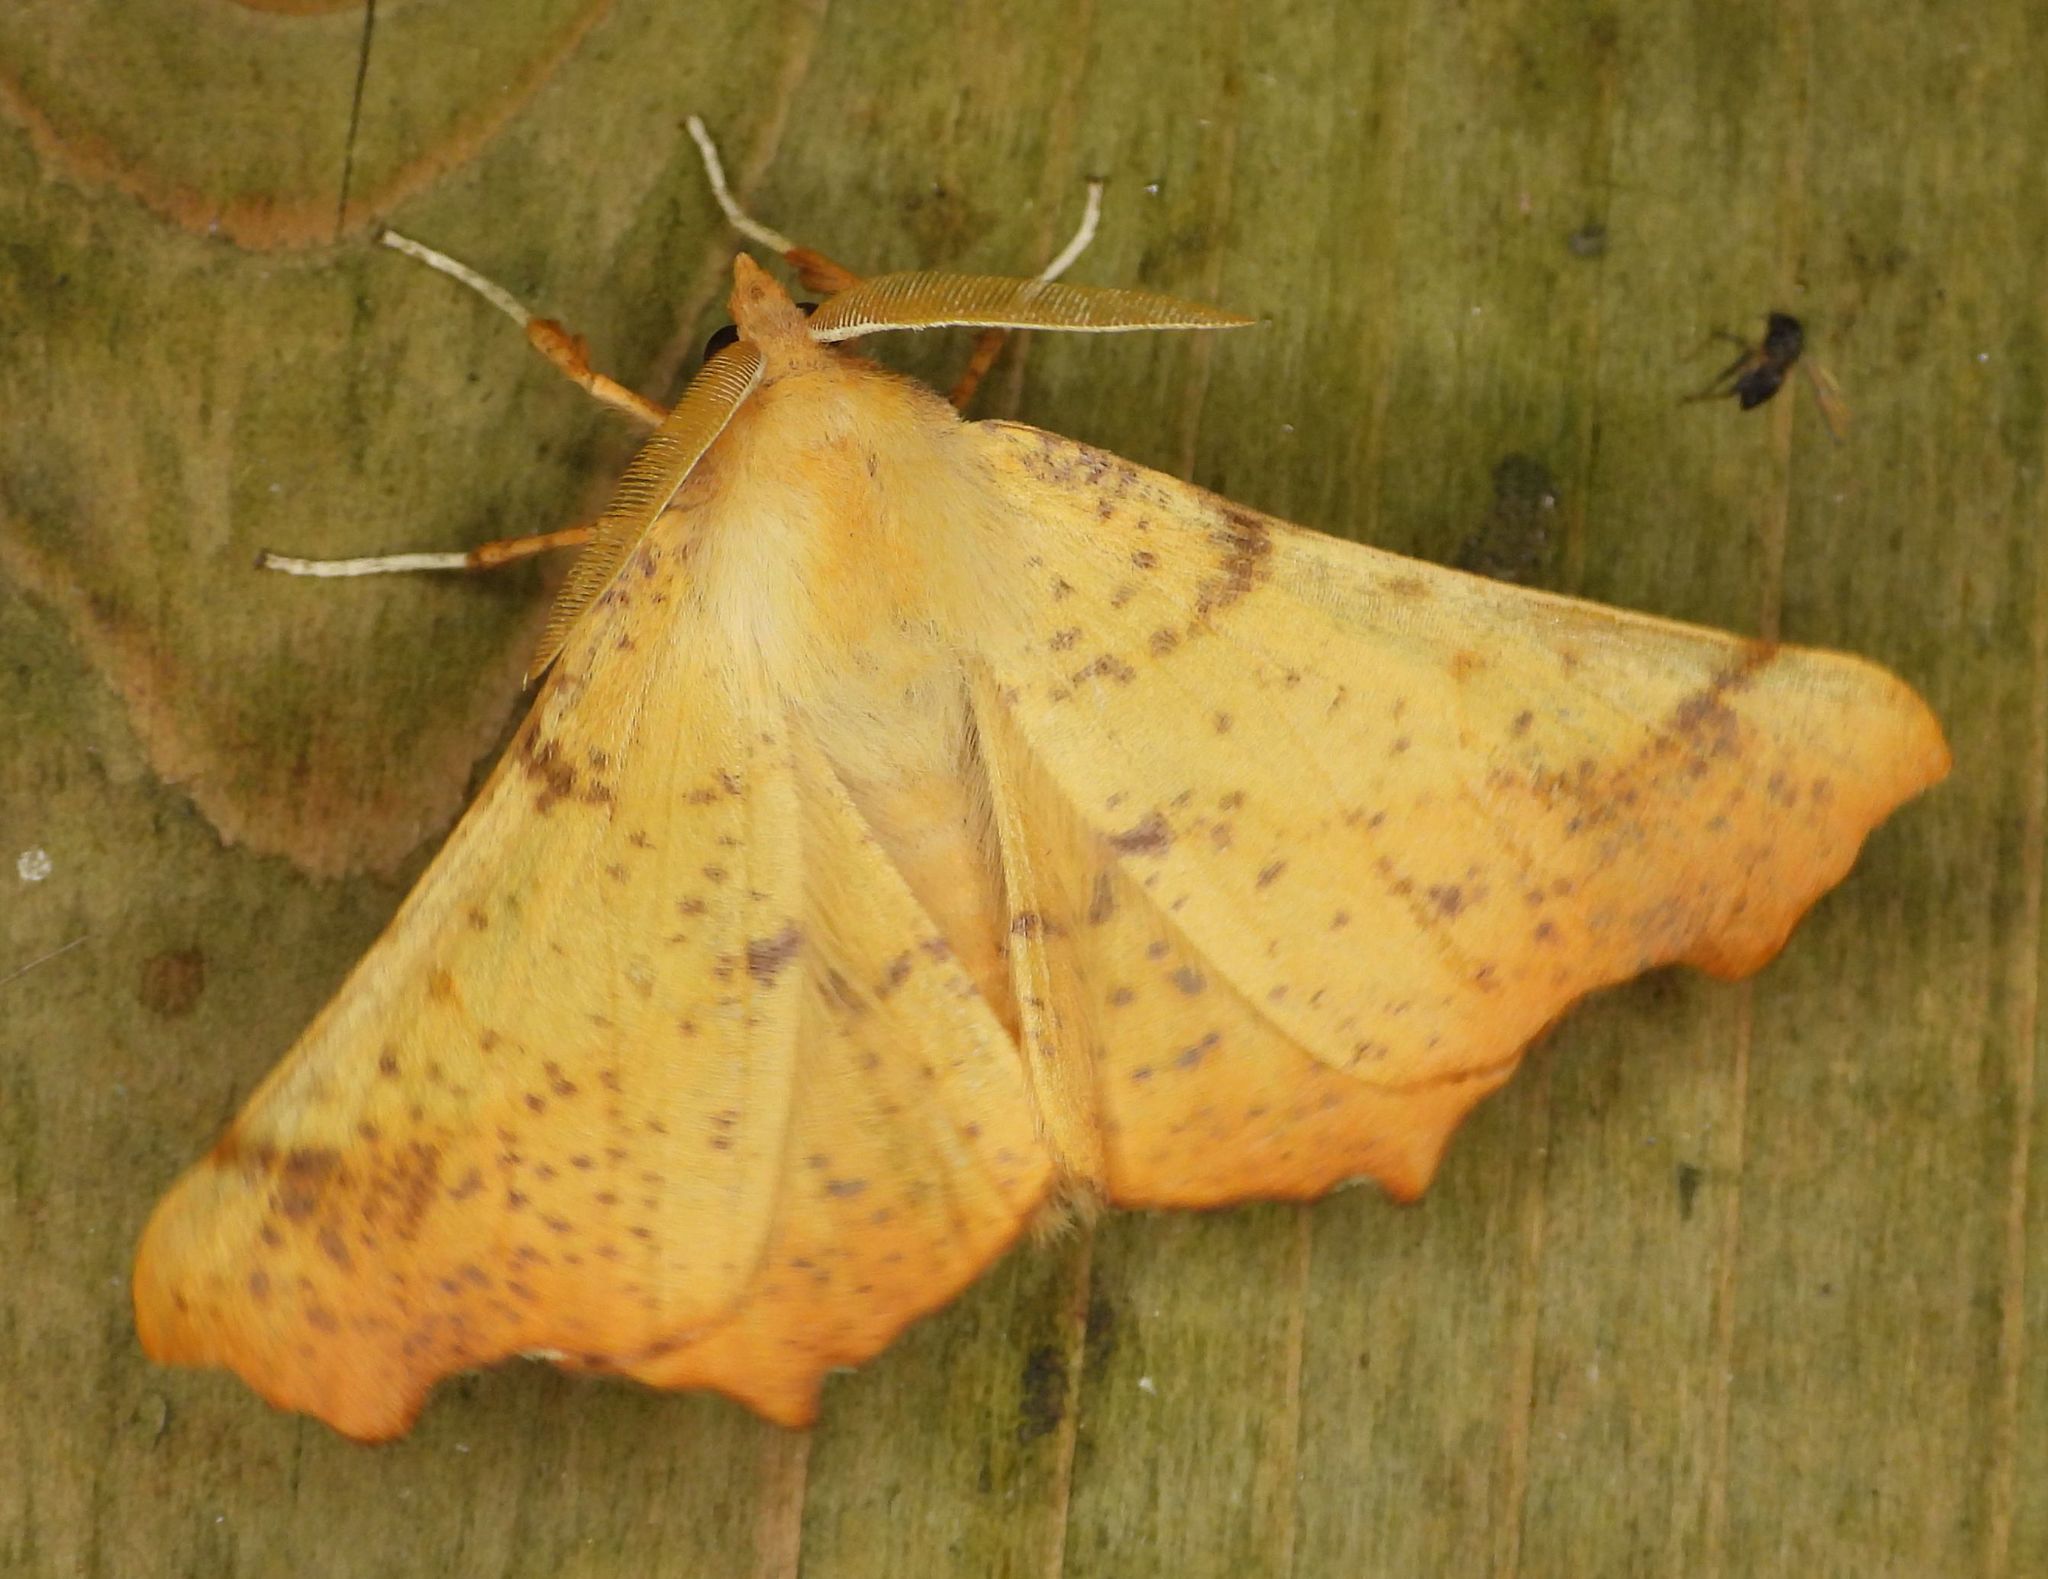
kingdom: Animalia
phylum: Arthropoda
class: Insecta
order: Lepidoptera
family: Geometridae
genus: Ennomos
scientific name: Ennomos magnaria
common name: Maple spanworm
